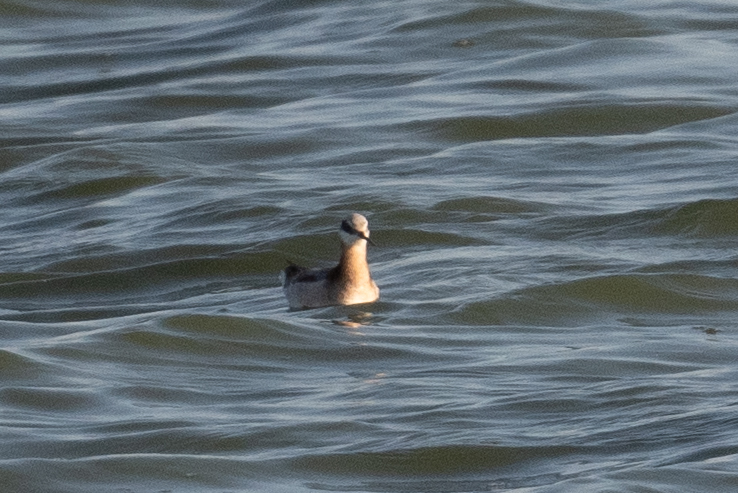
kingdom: Animalia
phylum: Chordata
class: Aves
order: Charadriiformes
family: Scolopacidae
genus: Phalaropus
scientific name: Phalaropus tricolor
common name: Wilson's phalarope
